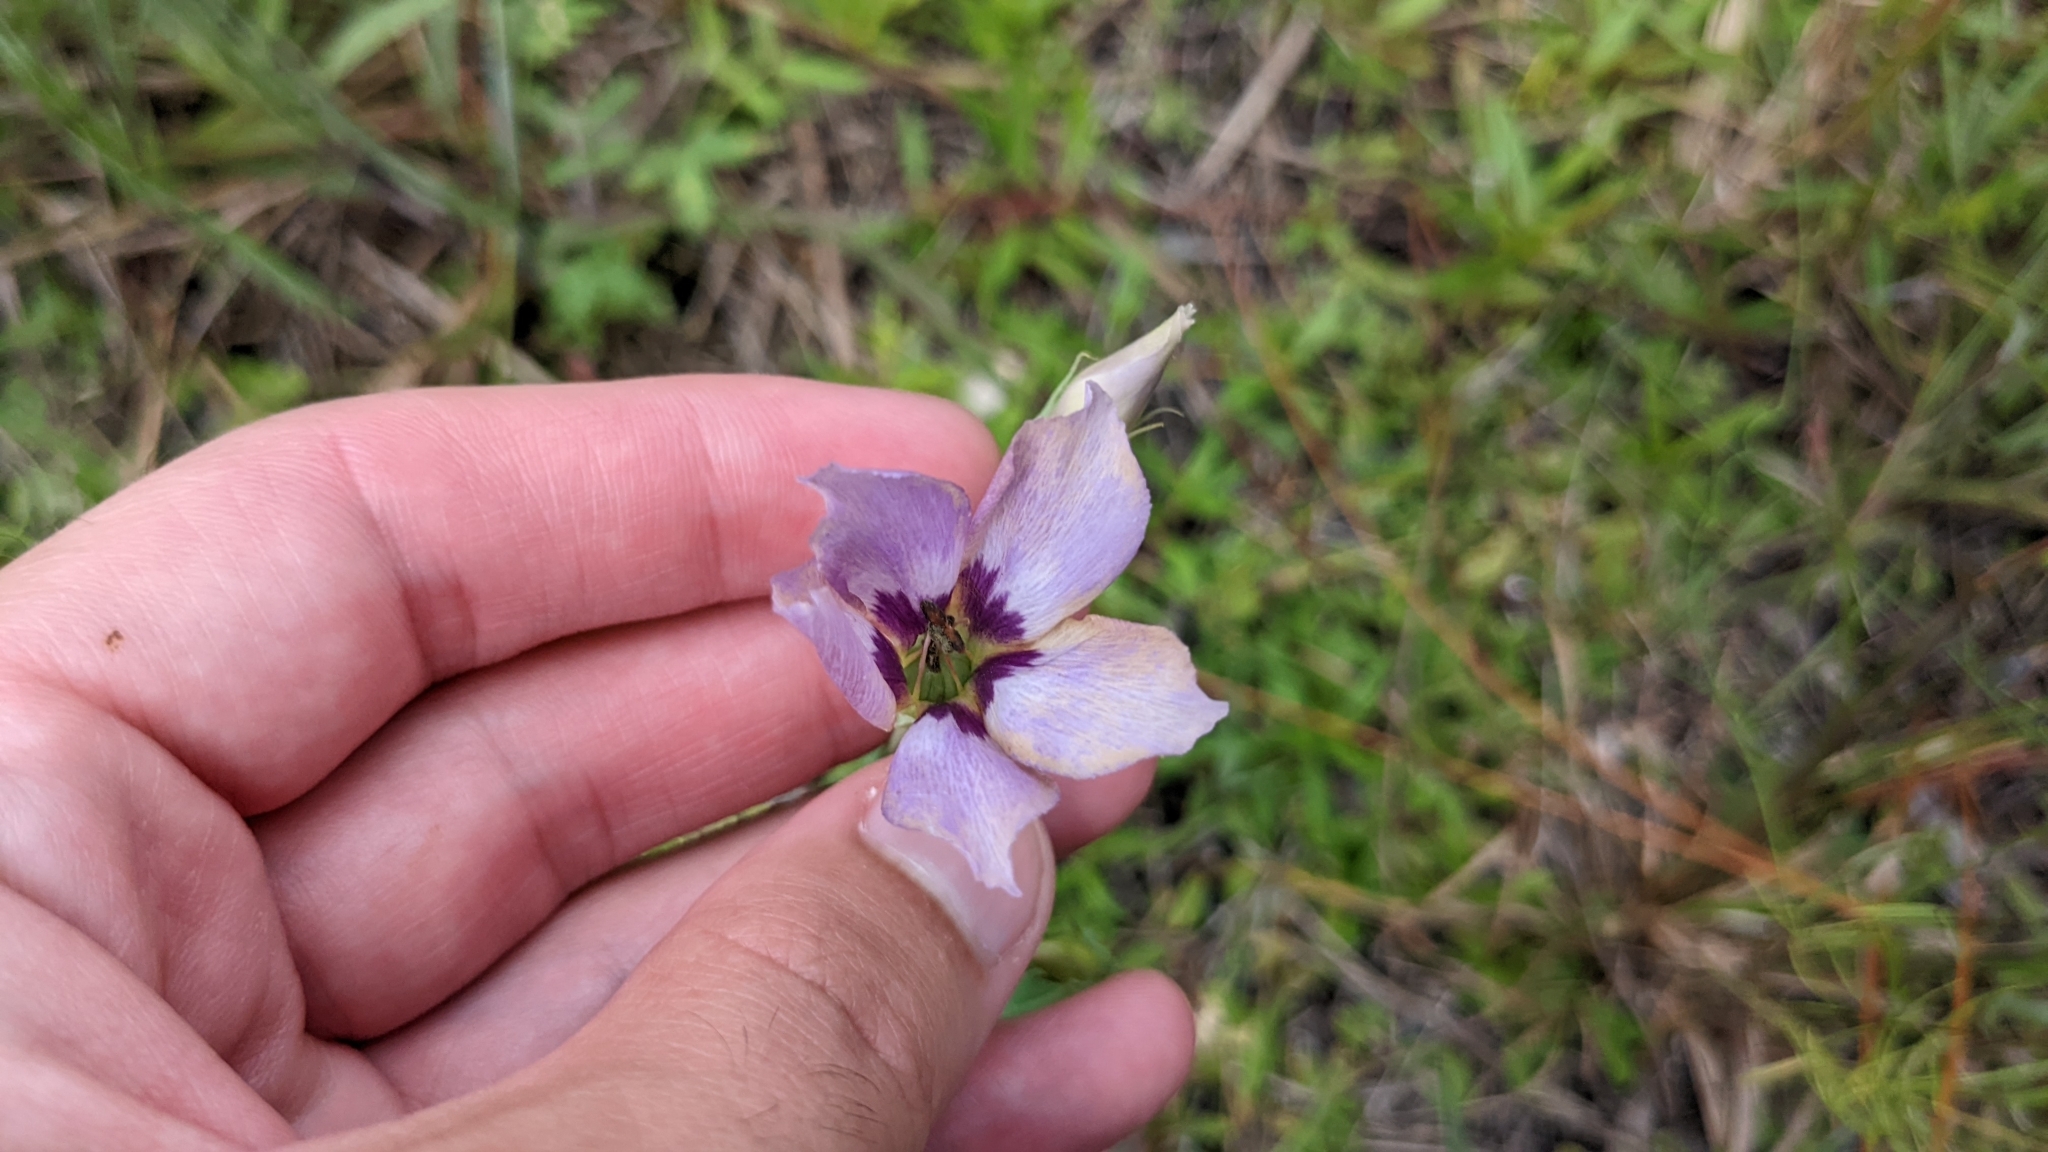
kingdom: Plantae
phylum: Tracheophyta
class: Magnoliopsida
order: Gentianales
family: Gentianaceae
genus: Eustoma
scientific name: Eustoma exaltatum
